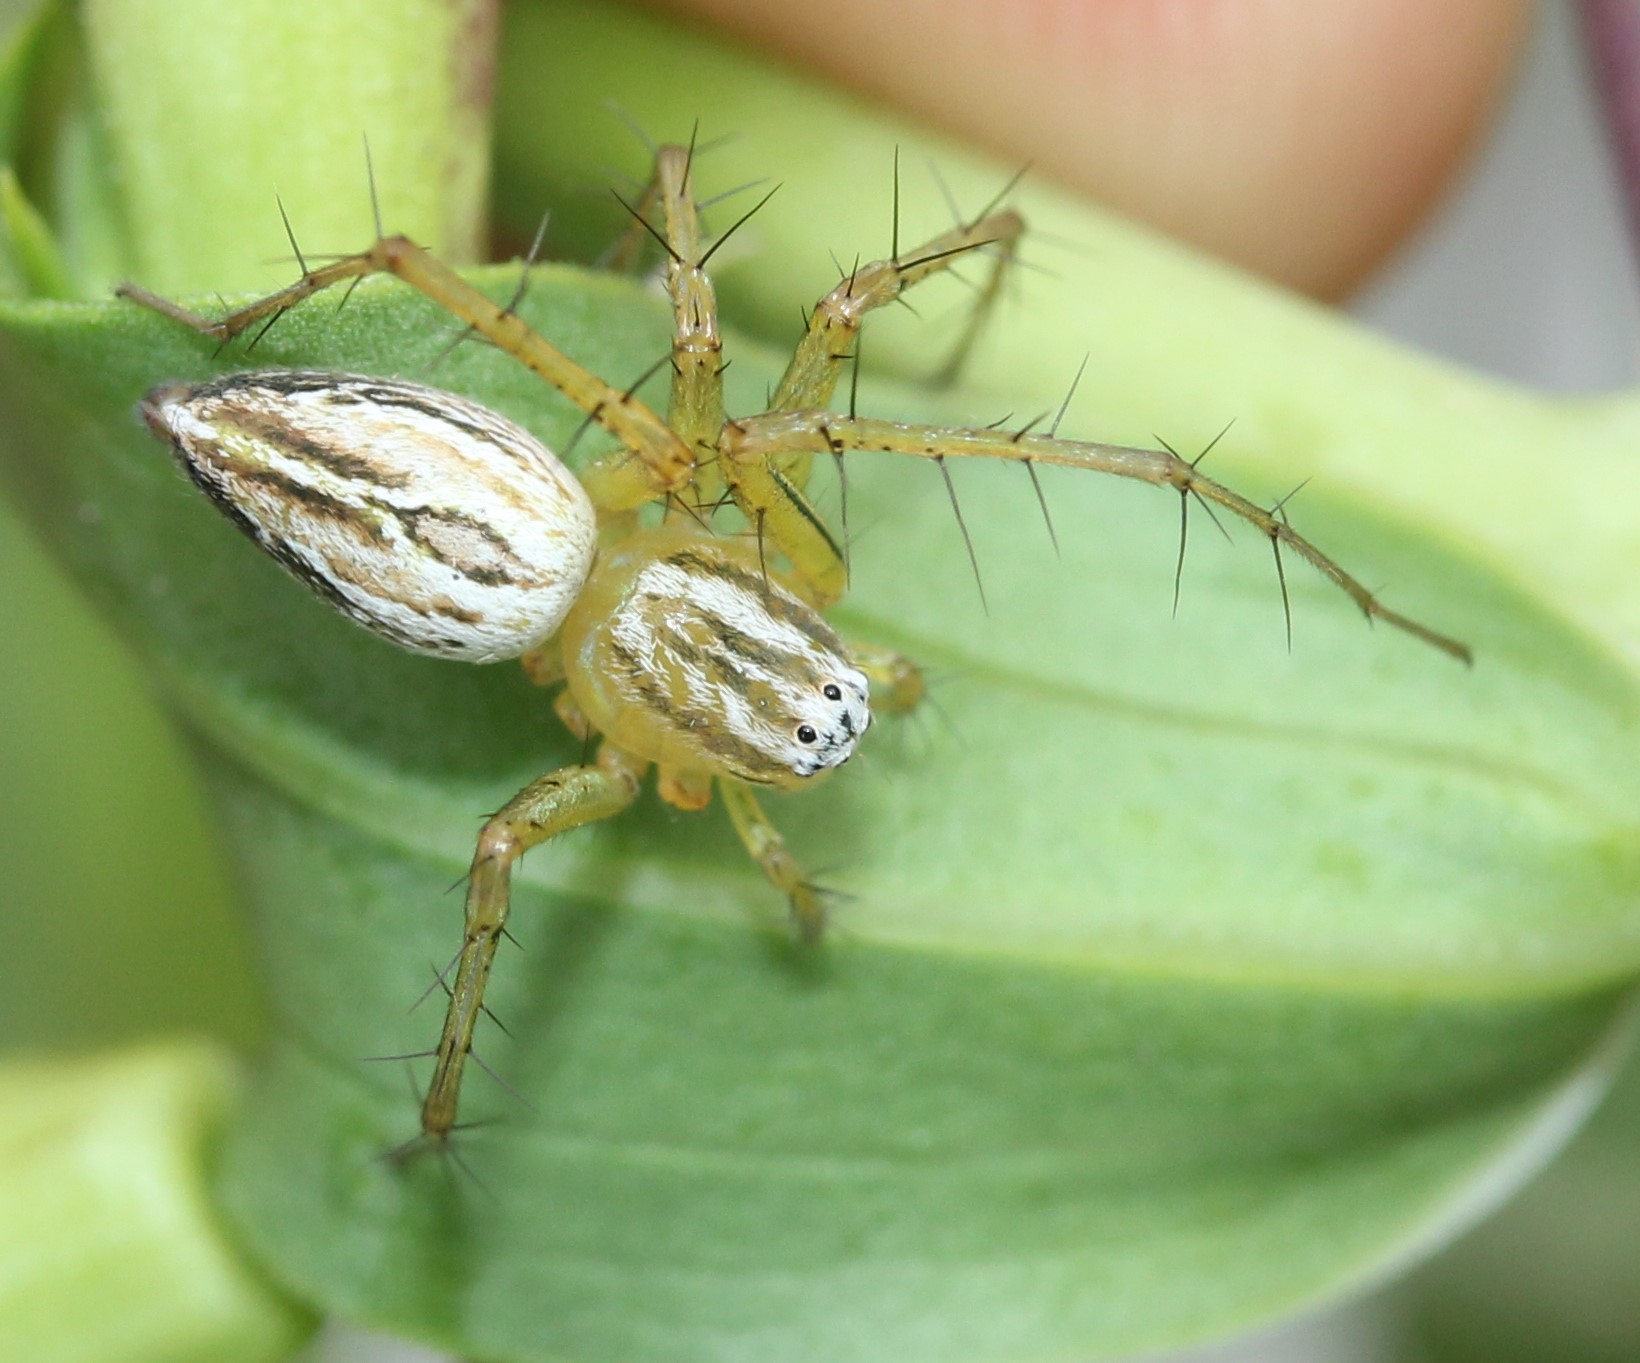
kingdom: Animalia
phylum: Arthropoda
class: Arachnida
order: Araneae
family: Oxyopidae
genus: Oxyopes
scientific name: Oxyopes salticus
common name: Lynx spiders
